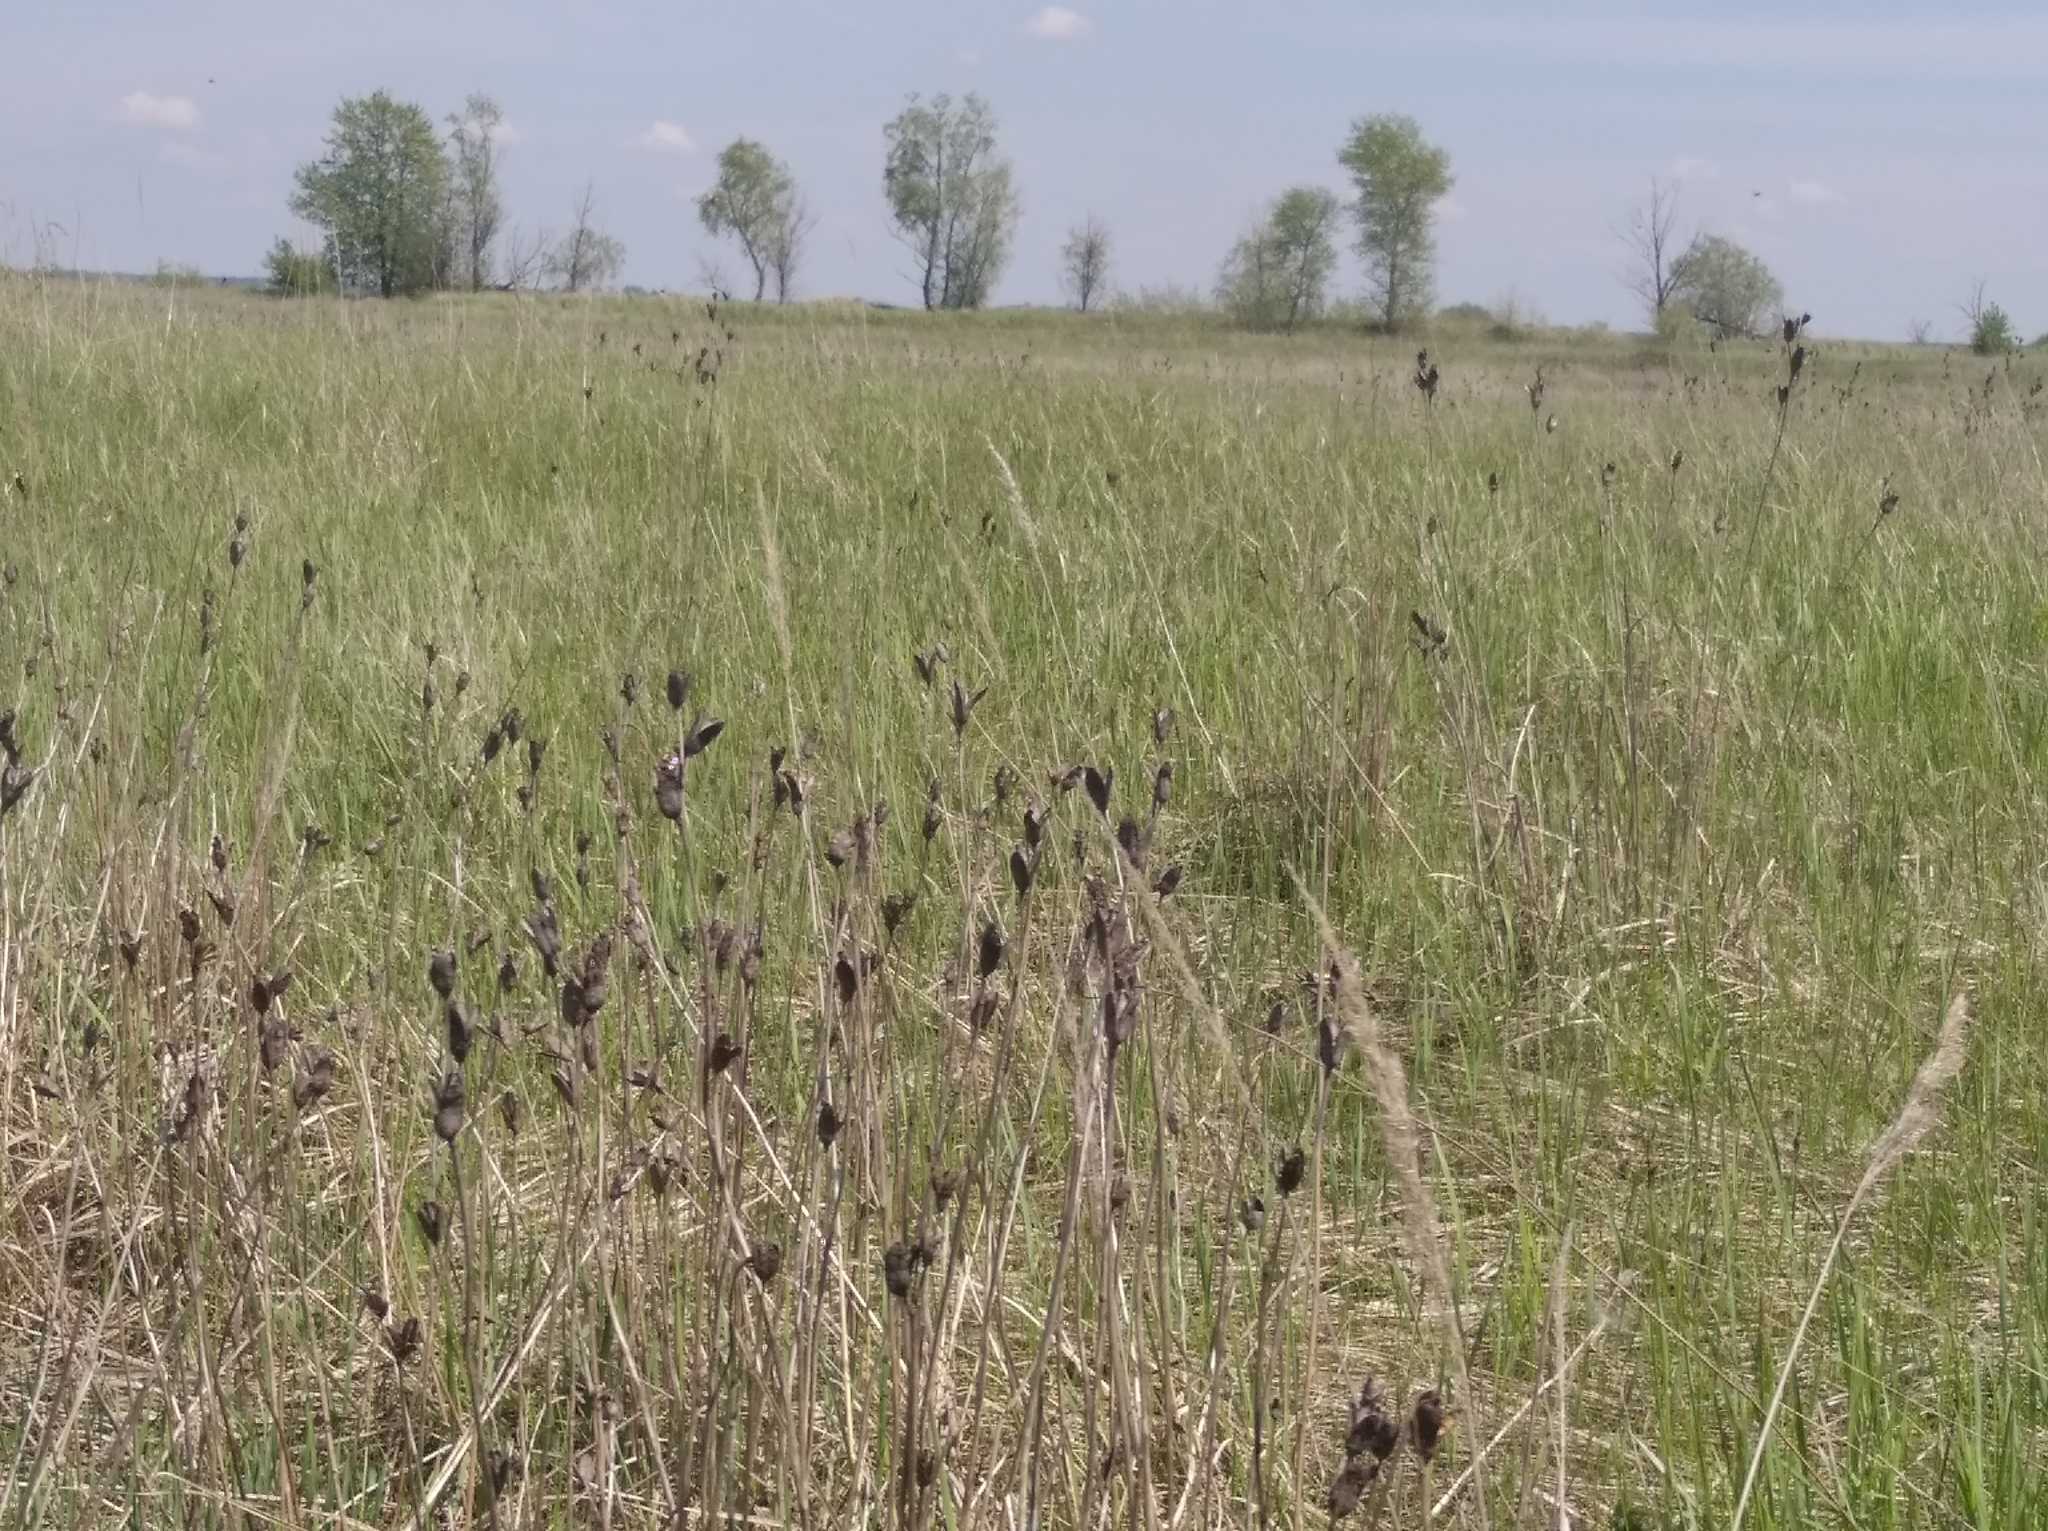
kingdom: Plantae
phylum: Tracheophyta
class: Liliopsida
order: Asparagales
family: Iridaceae
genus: Iris
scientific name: Iris sibirica
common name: Siberian iris
